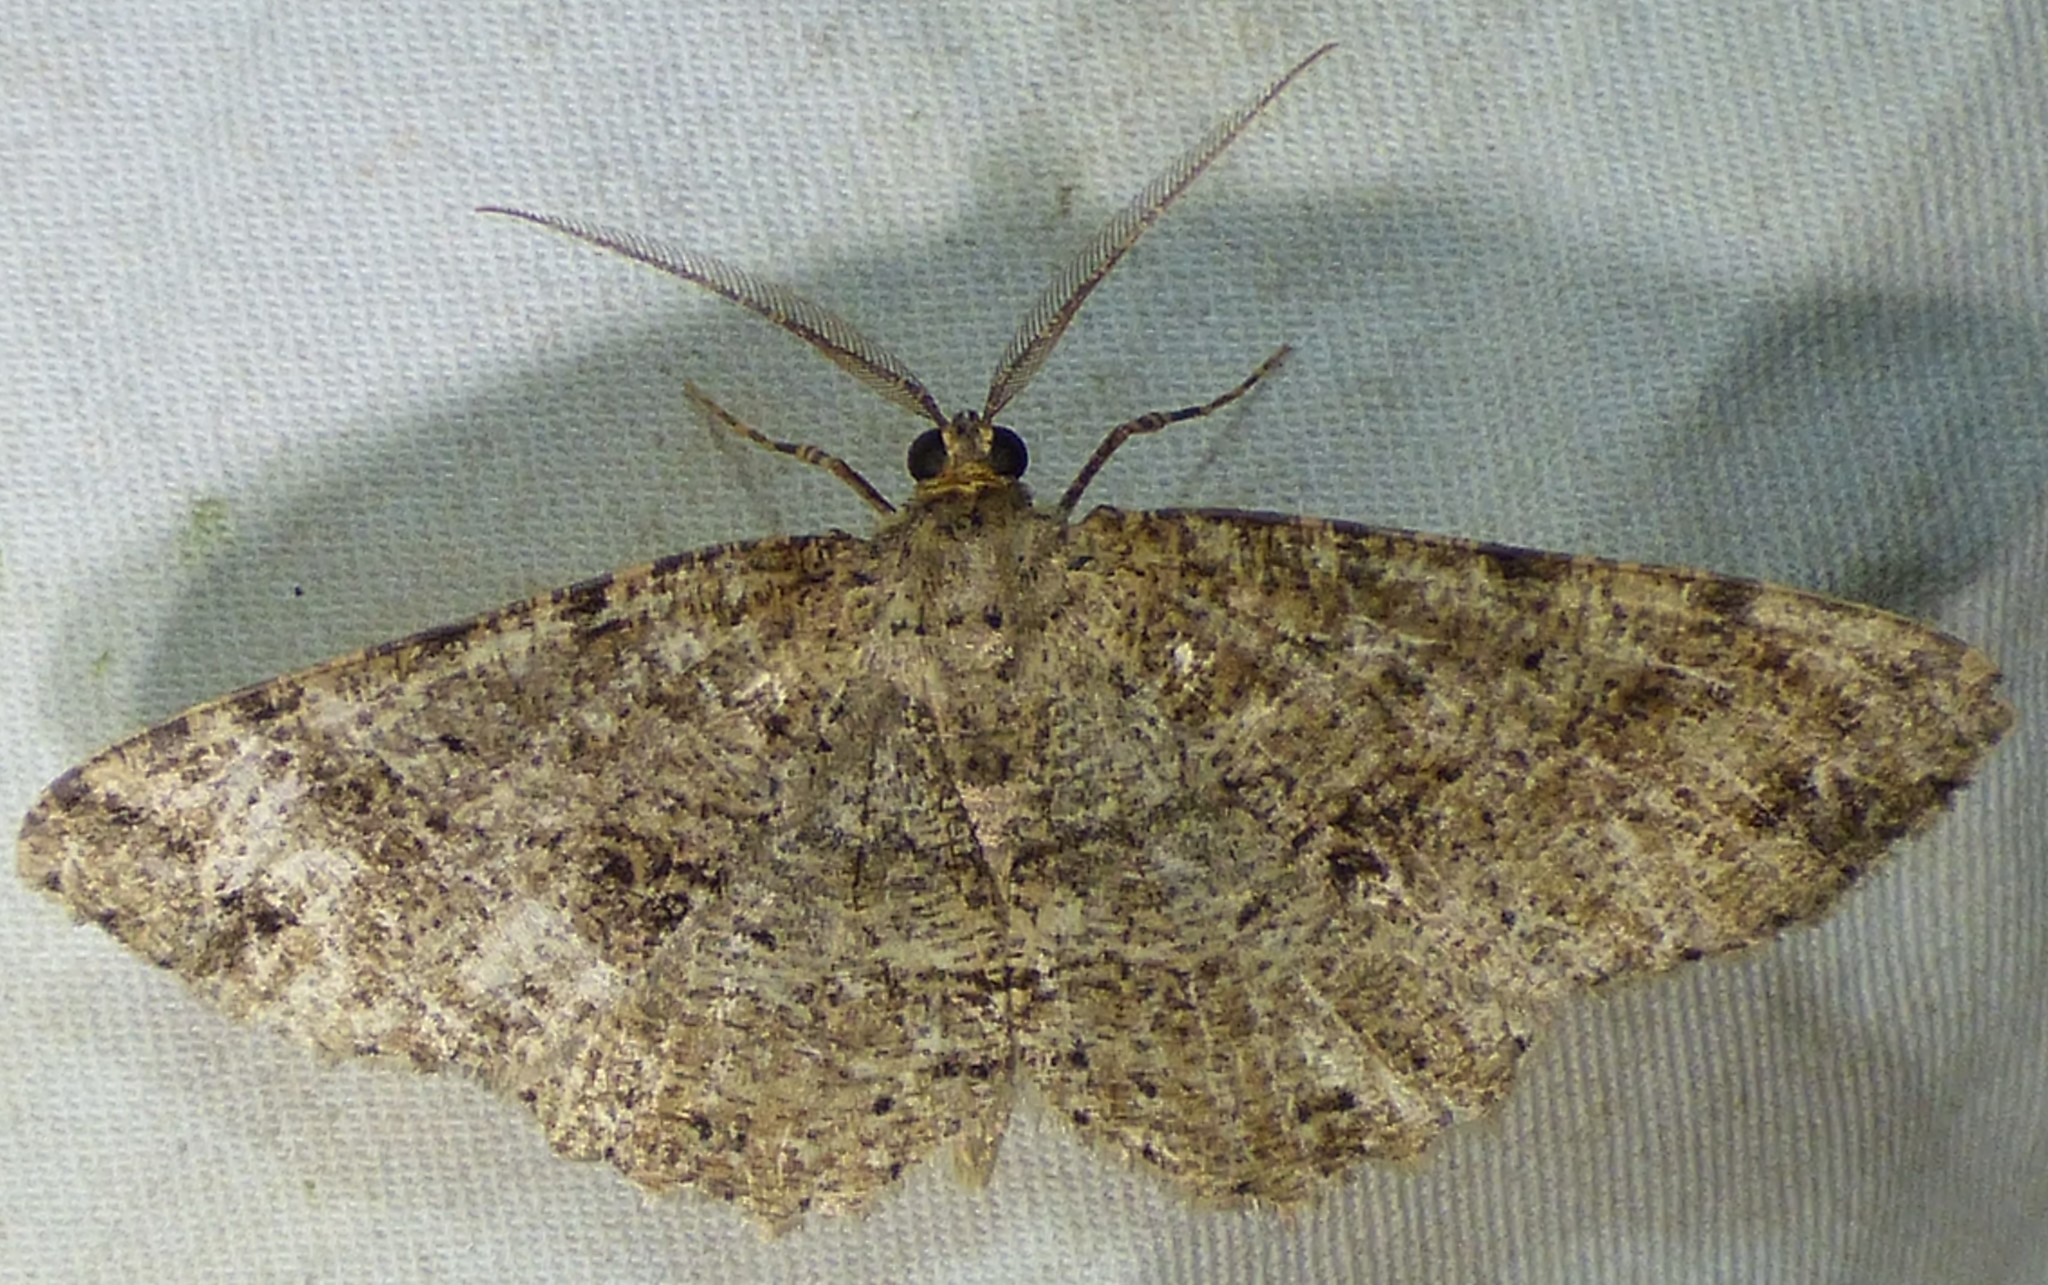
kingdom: Animalia
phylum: Arthropoda
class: Insecta
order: Lepidoptera
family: Geometridae
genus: Melanolophia
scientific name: Melanolophia canadaria
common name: Canadian melanolophia
